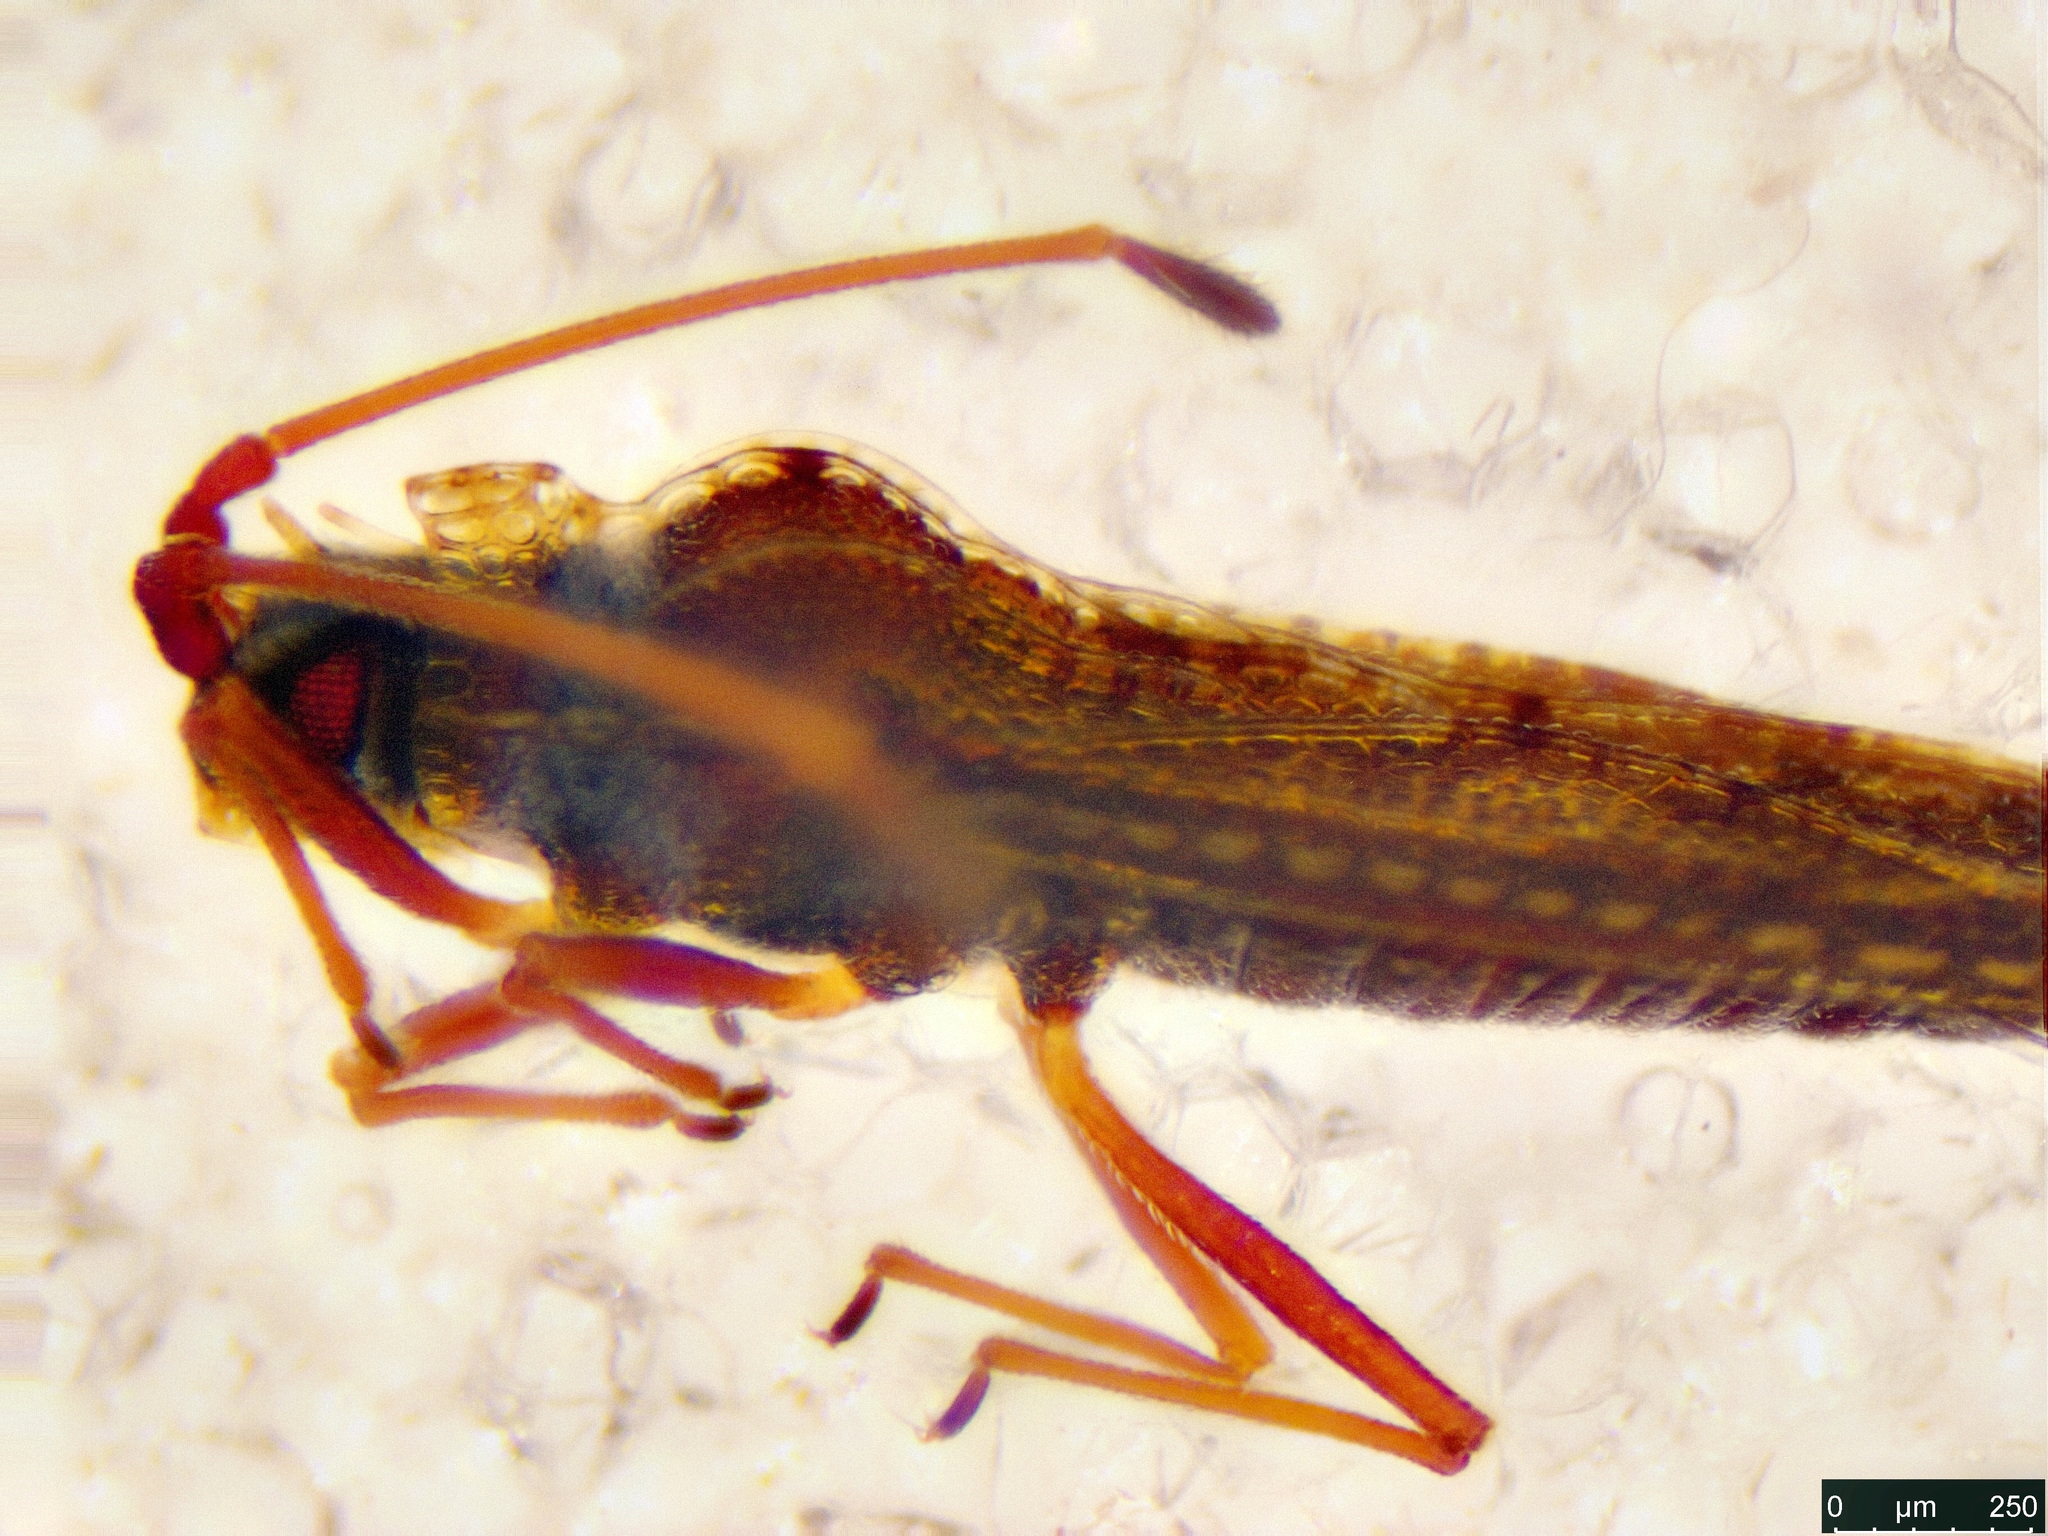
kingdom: Animalia
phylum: Arthropoda
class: Insecta
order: Hemiptera
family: Tingidae
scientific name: Tingidae
